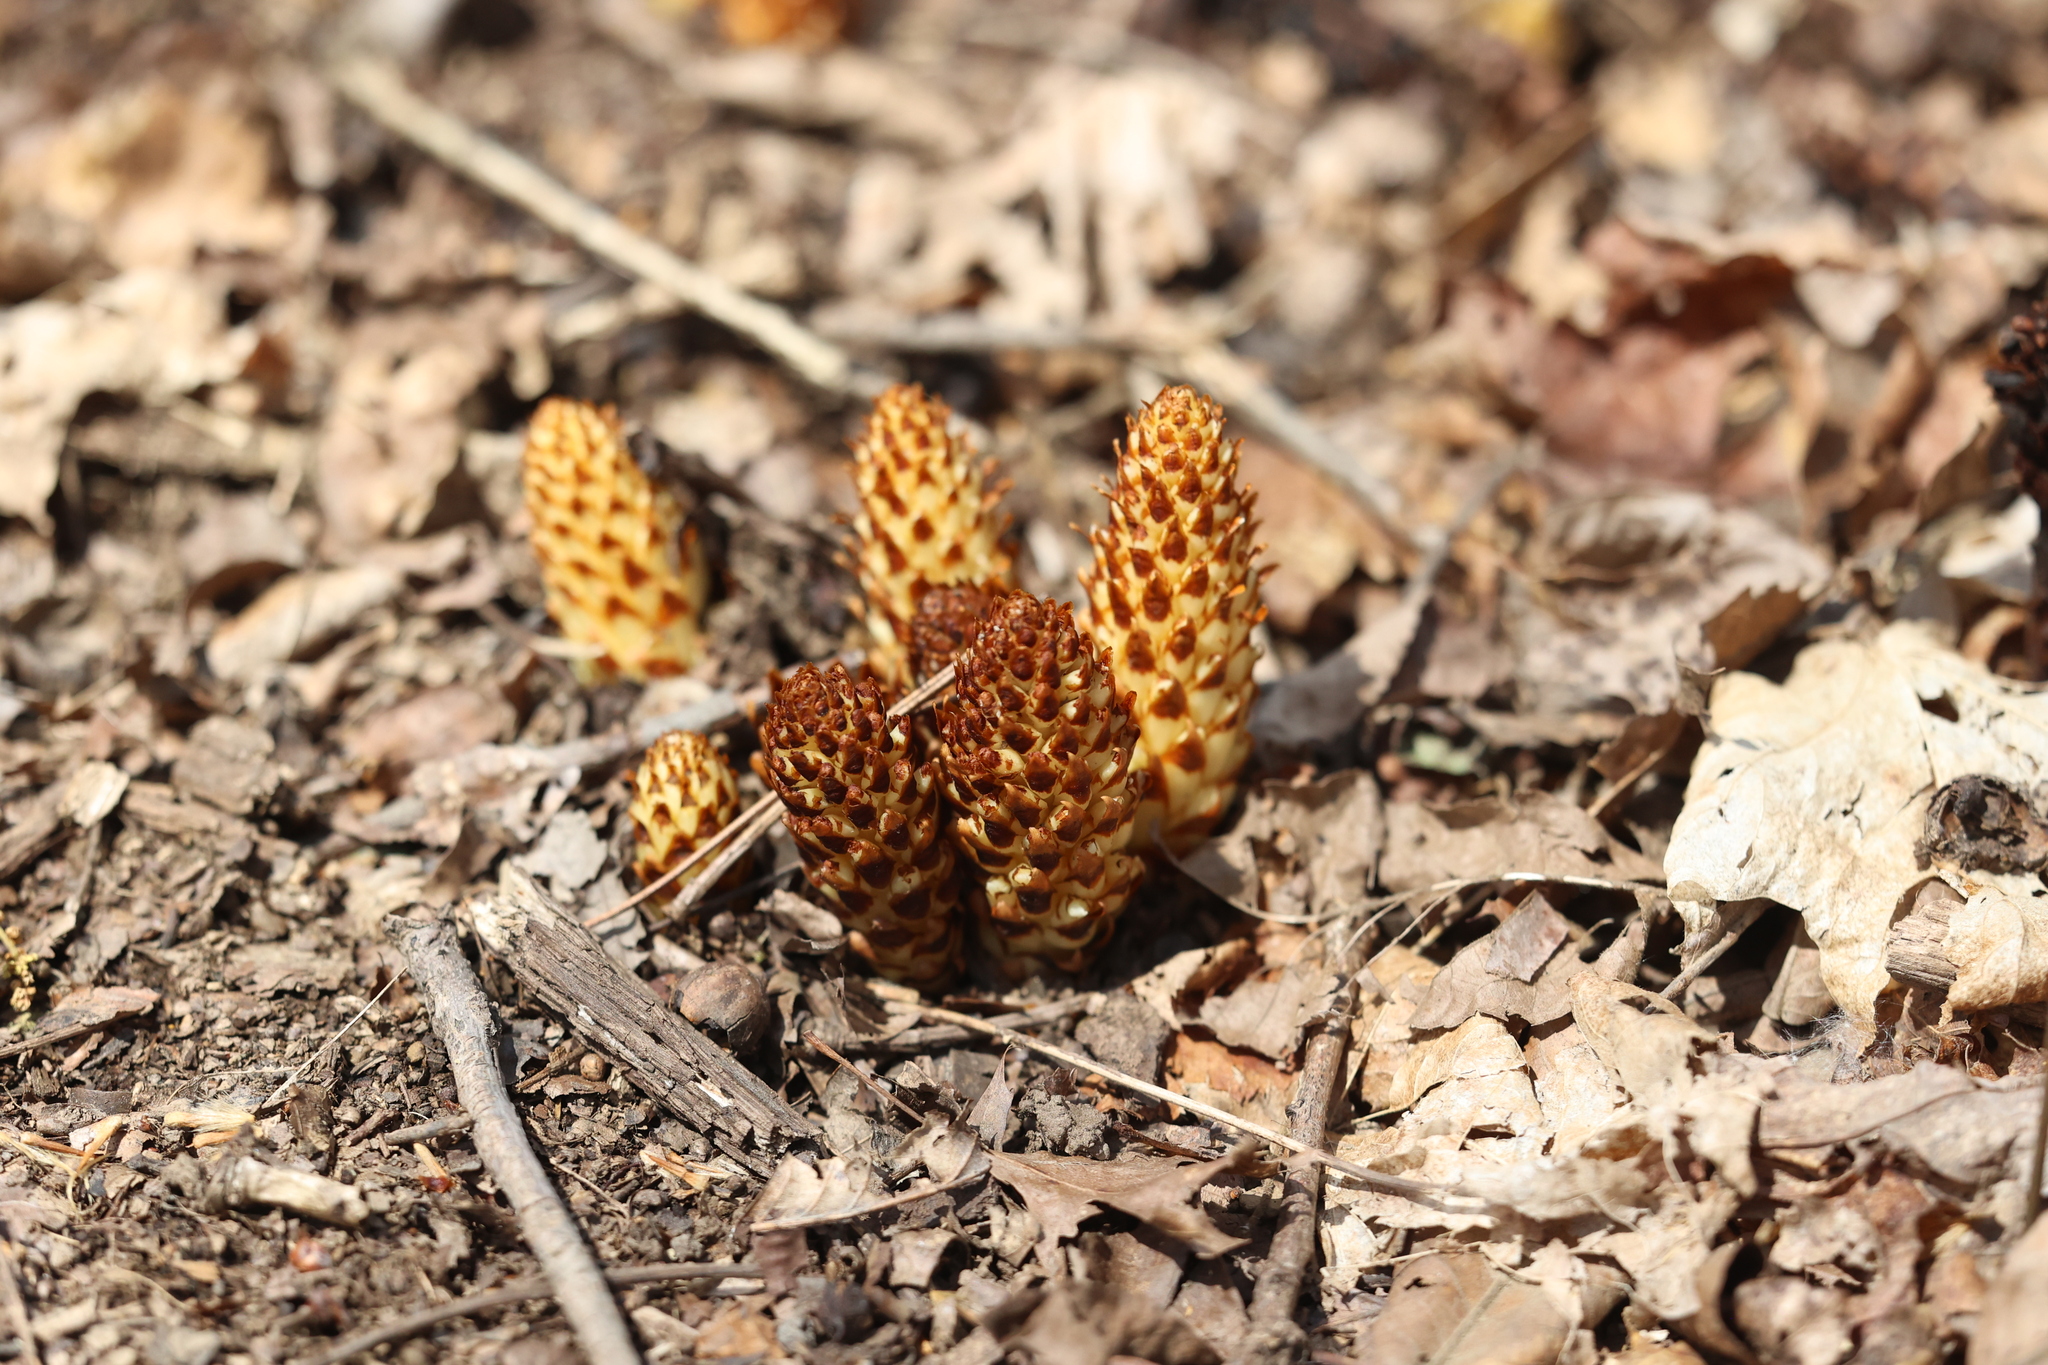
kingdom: Plantae
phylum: Tracheophyta
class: Magnoliopsida
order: Lamiales
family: Orobanchaceae
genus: Conopholis
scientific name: Conopholis americana
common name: American cancer-root
